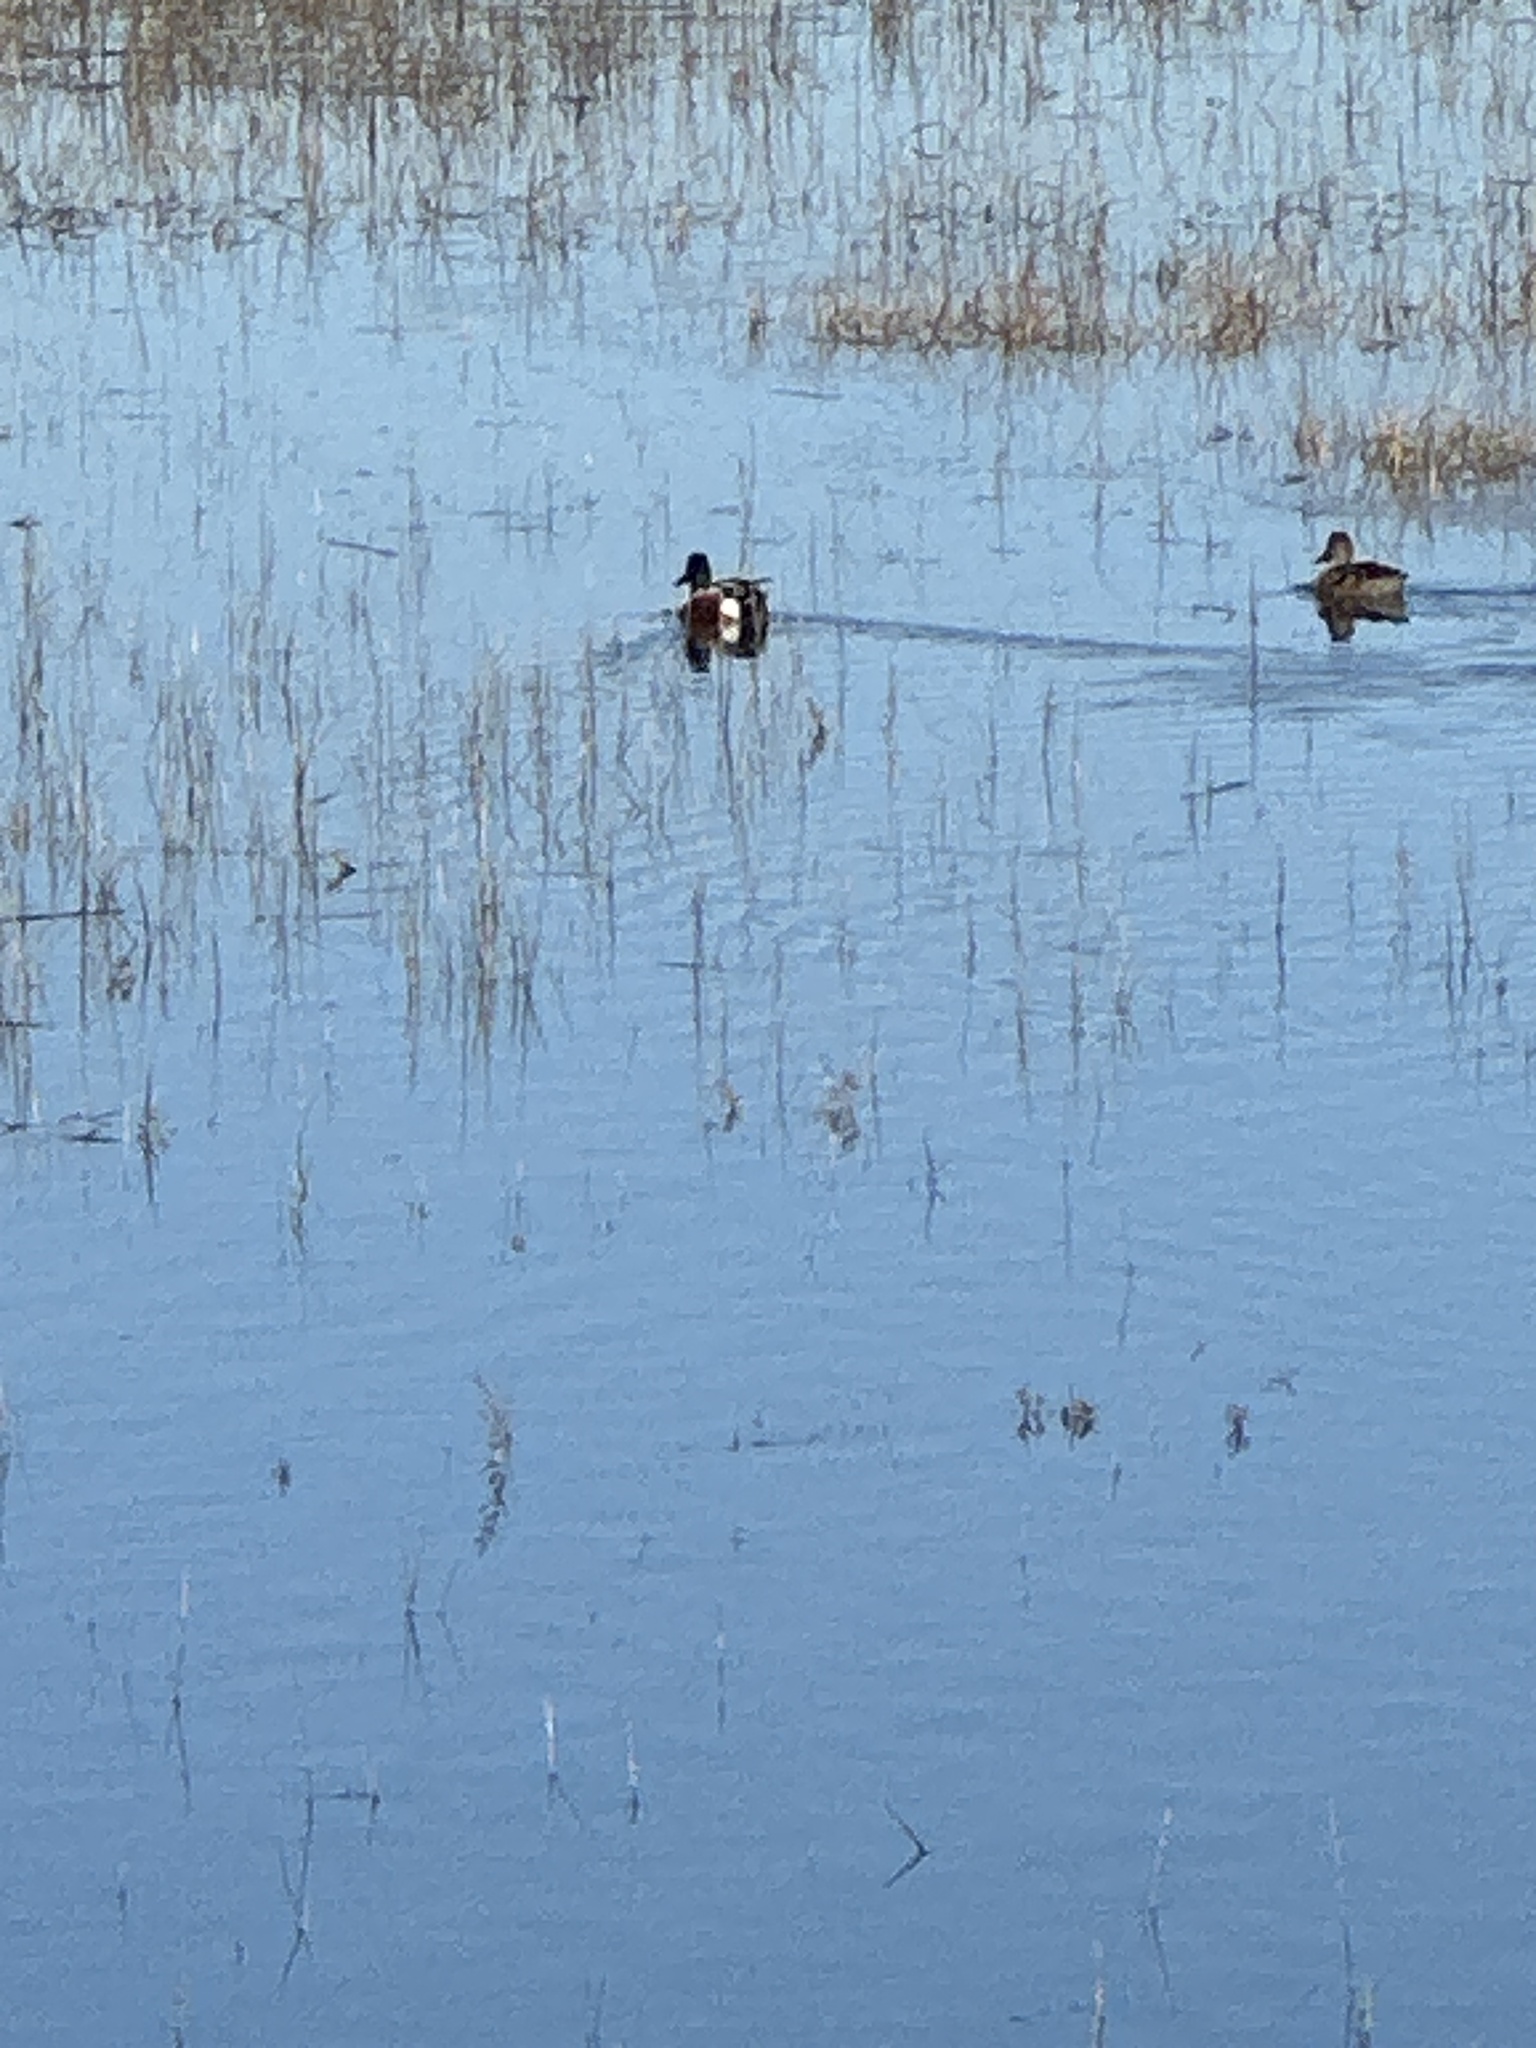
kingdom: Animalia
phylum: Chordata
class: Aves
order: Anseriformes
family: Anatidae
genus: Spatula
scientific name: Spatula clypeata
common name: Northern shoveler
